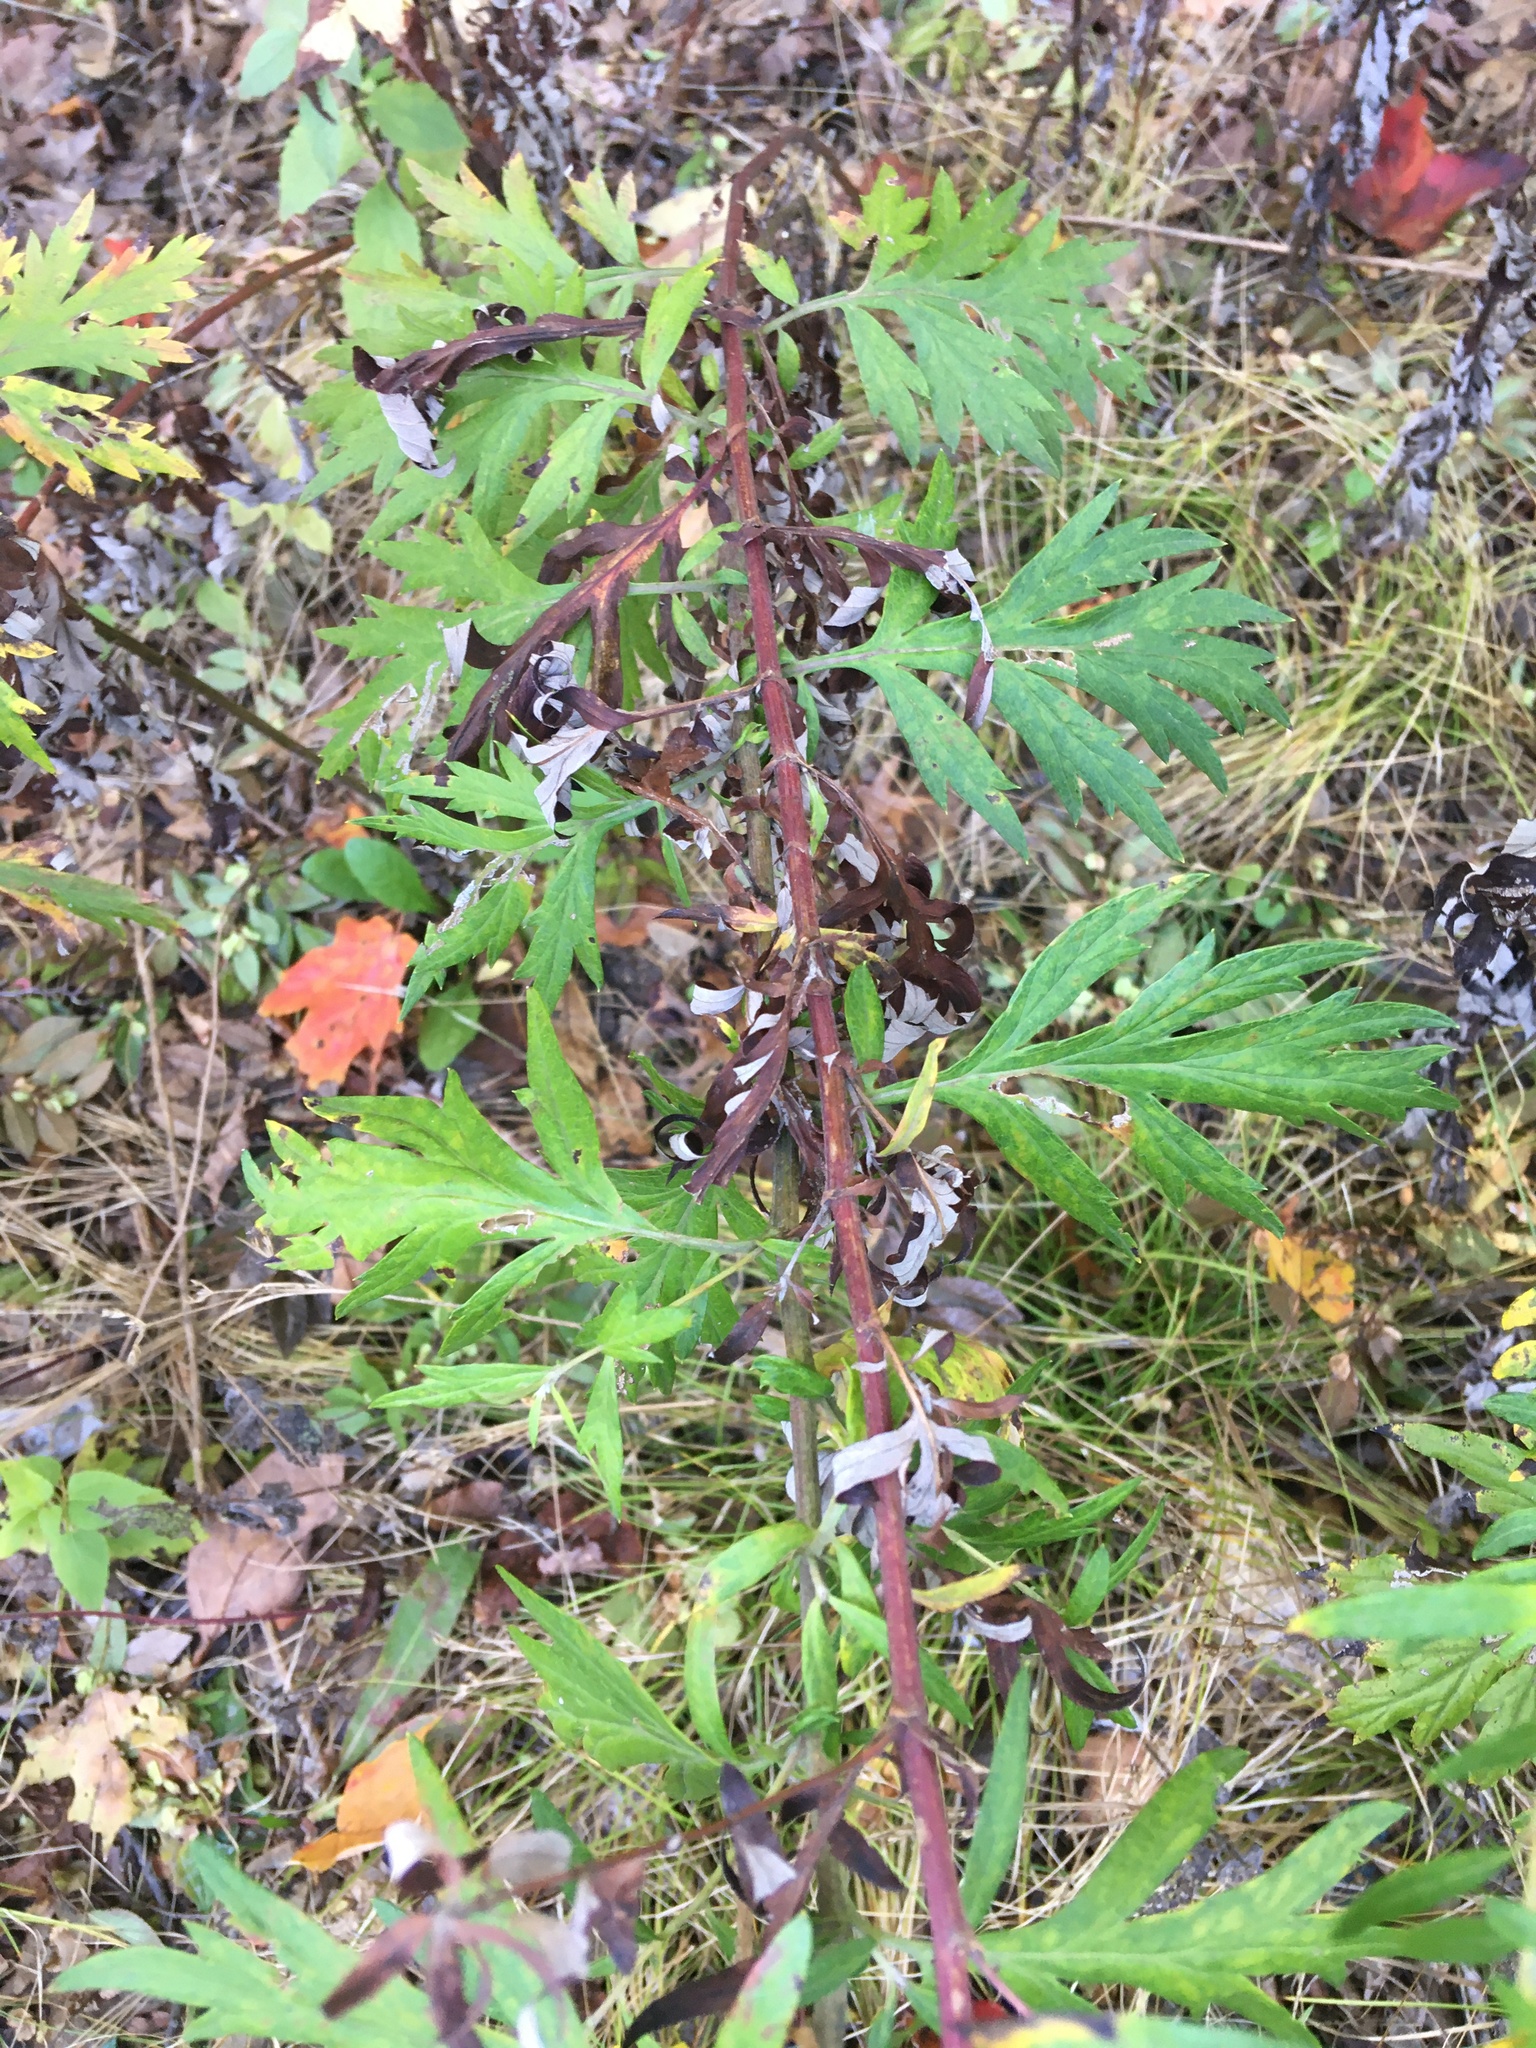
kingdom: Plantae
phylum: Tracheophyta
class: Magnoliopsida
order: Asterales
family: Asteraceae
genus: Artemisia
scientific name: Artemisia vulgaris
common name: Mugwort
